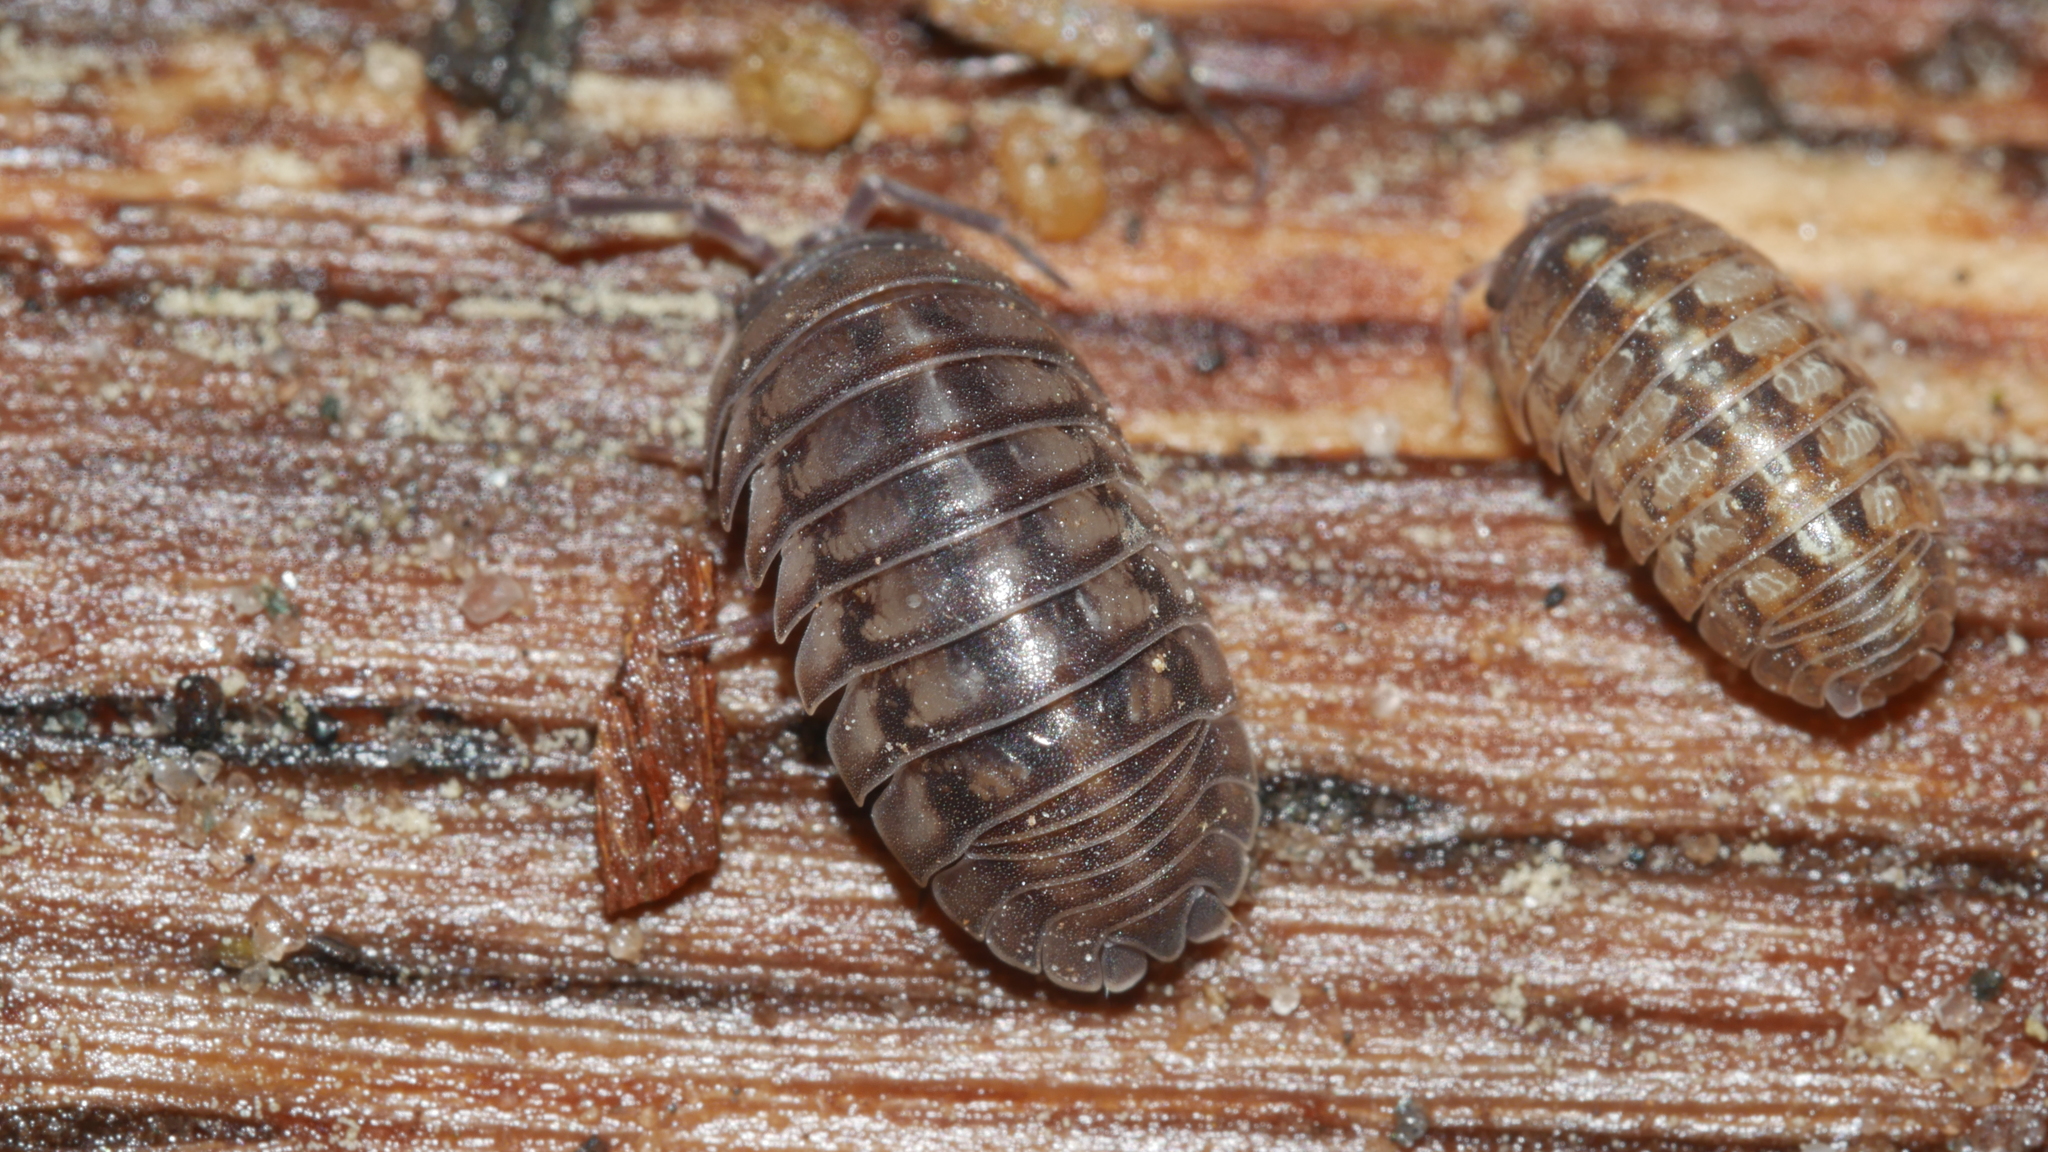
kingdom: Animalia
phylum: Arthropoda
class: Malacostraca
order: Isopoda
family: Armadillidiidae
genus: Armadillidium
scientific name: Armadillidium nasatum
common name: Isopod
